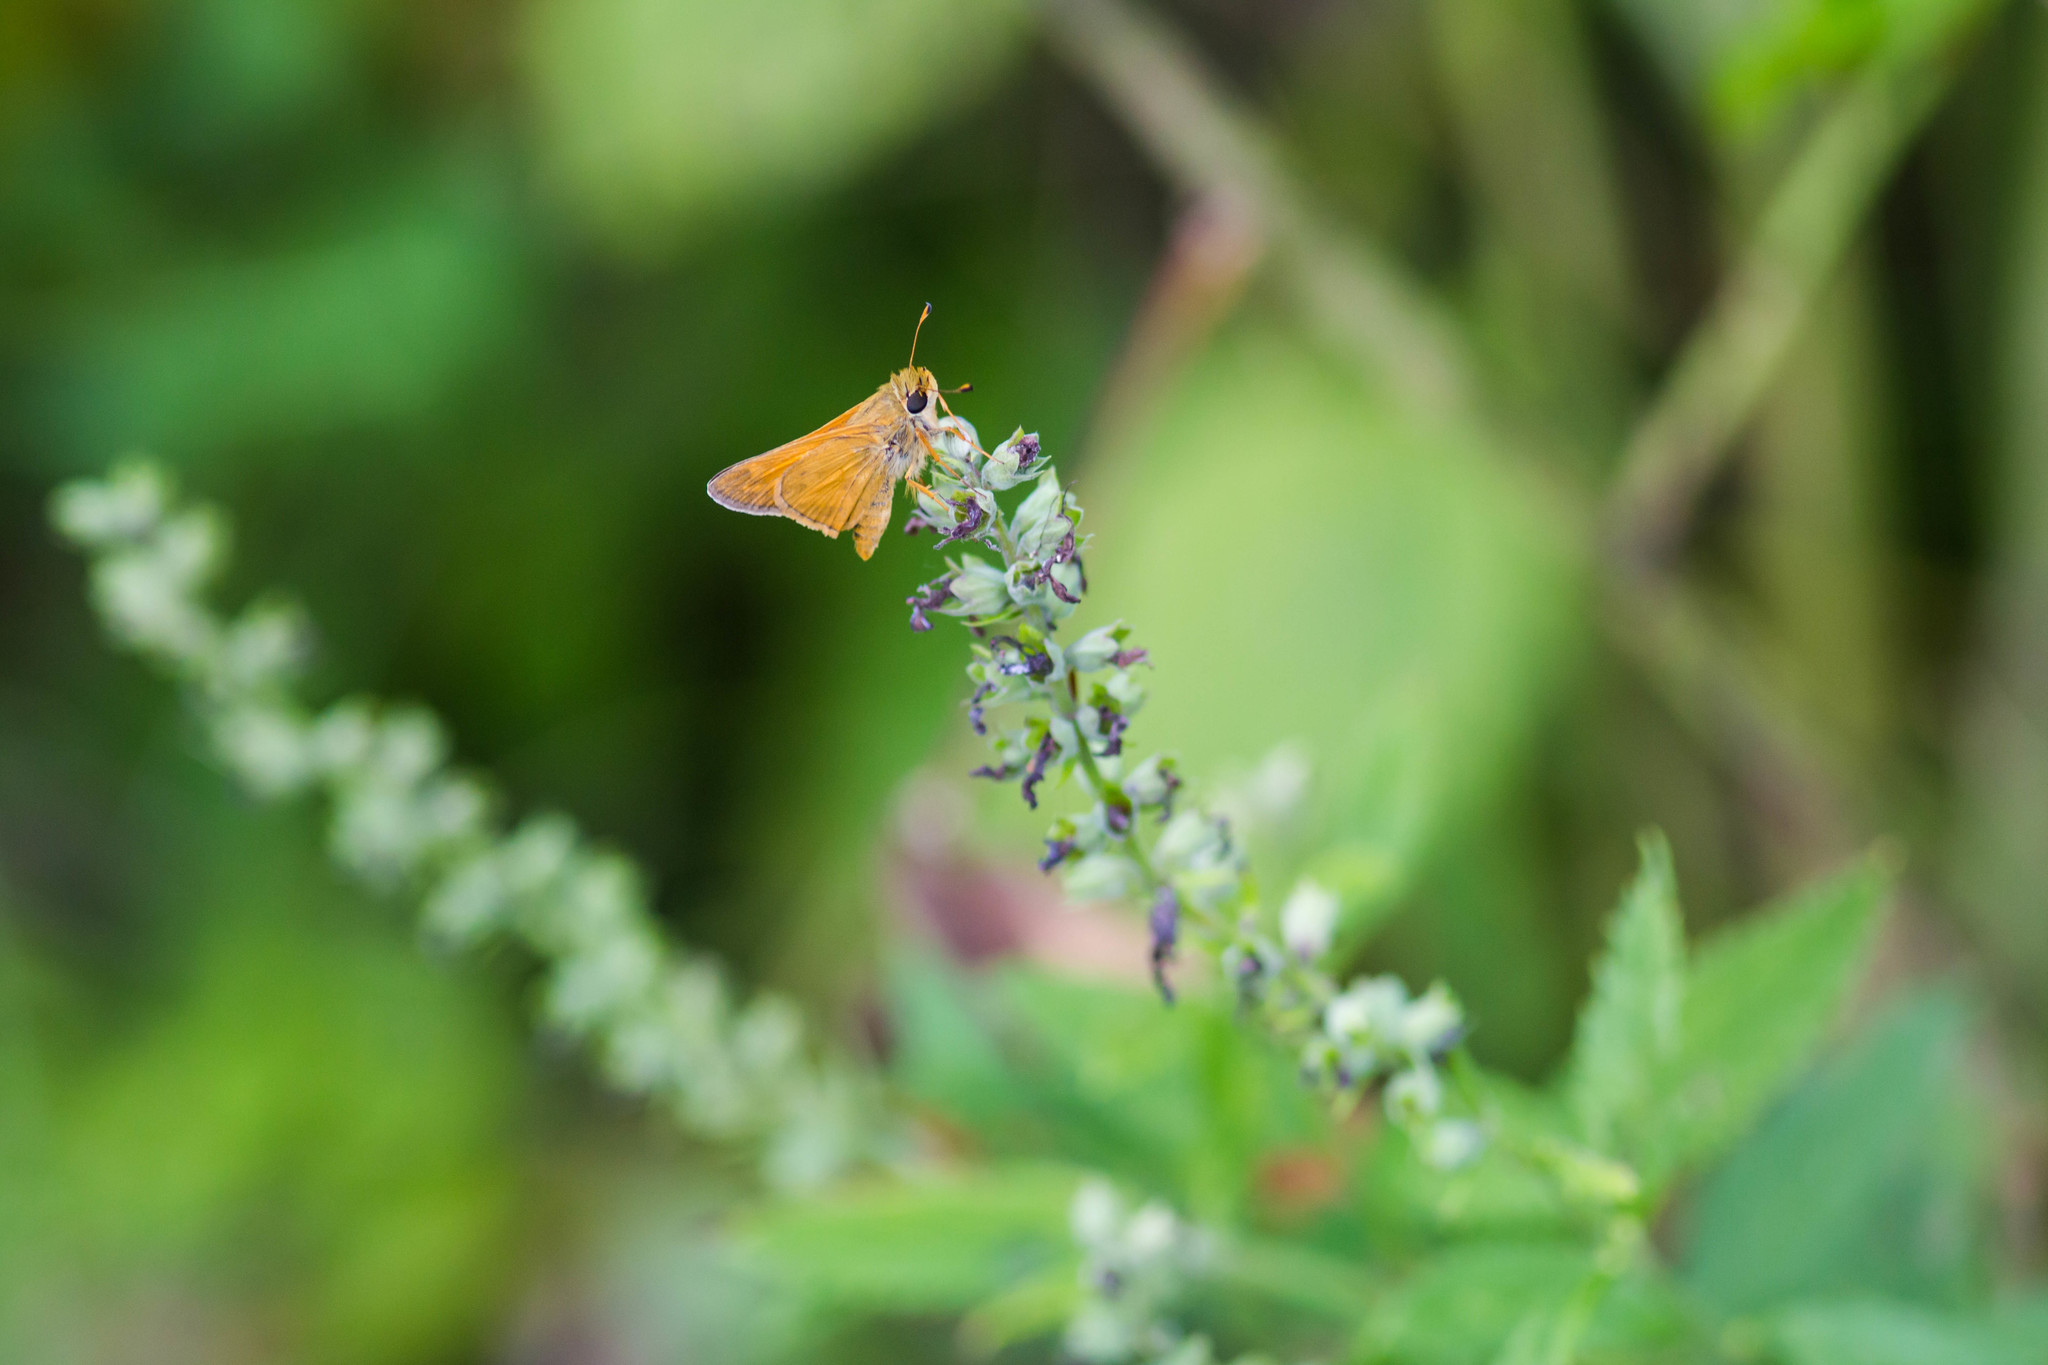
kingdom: Animalia
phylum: Arthropoda
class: Insecta
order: Lepidoptera
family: Hesperiidae
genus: Atalopedes
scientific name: Atalopedes
